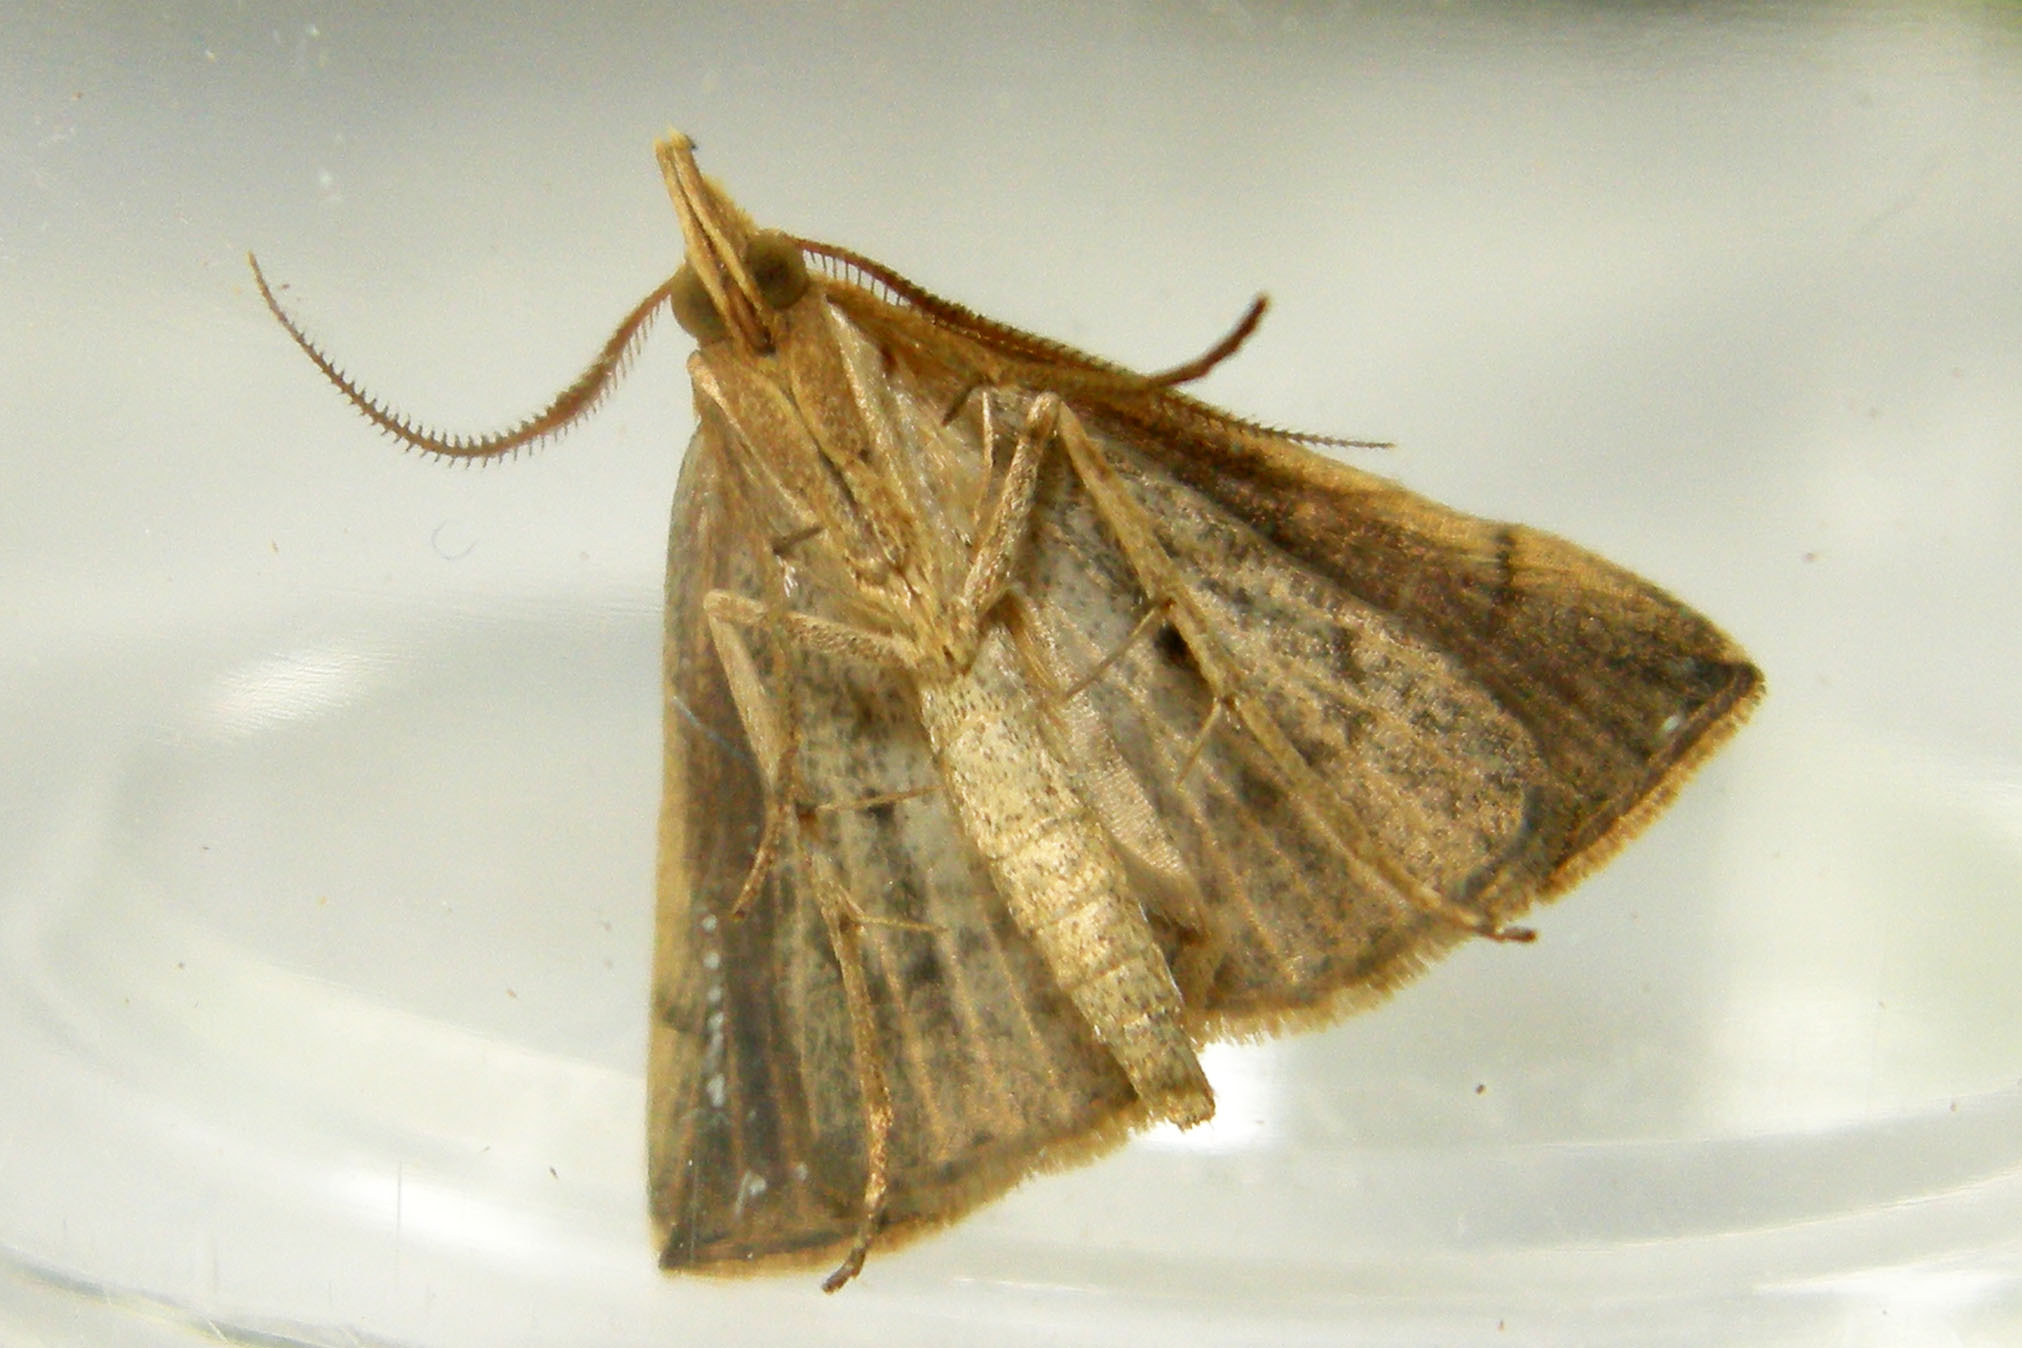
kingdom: Animalia
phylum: Arthropoda
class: Insecta
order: Lepidoptera
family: Erebidae
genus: Macrochilo
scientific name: Macrochilo louisiana
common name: Louisiana macrochilo
